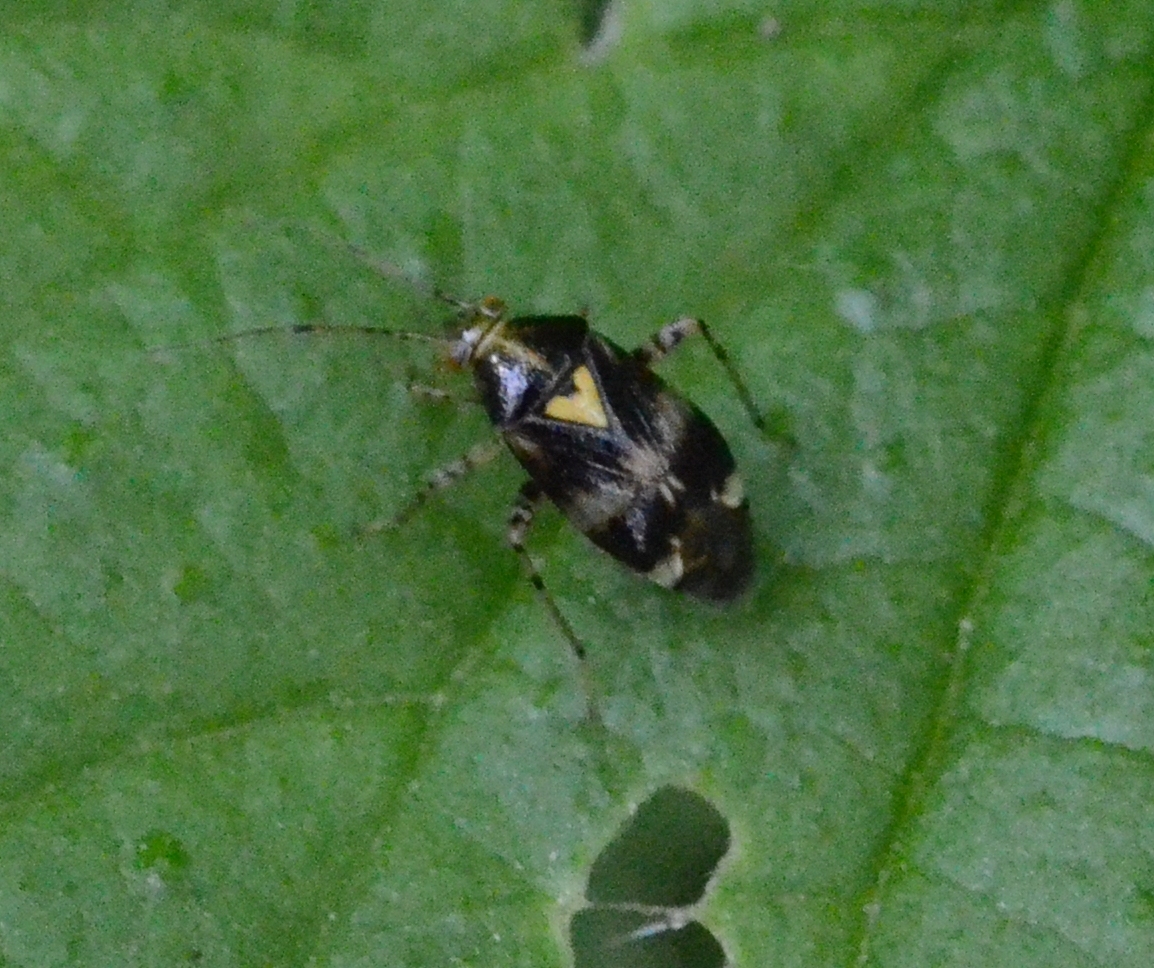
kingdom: Animalia
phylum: Arthropoda
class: Insecta
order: Hemiptera
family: Miridae
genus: Liocoris
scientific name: Liocoris tripustulatus
